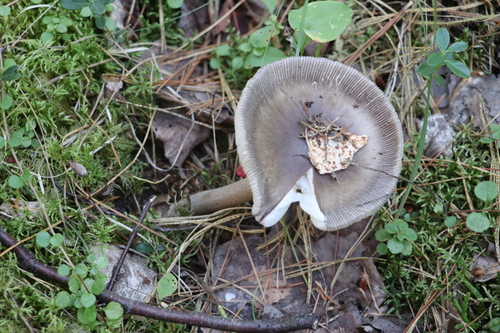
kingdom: Fungi
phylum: Basidiomycota
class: Agaricomycetes
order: Agaricales
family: Amanitaceae
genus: Amanita
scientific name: Amanita battarrae
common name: Banded amanita
